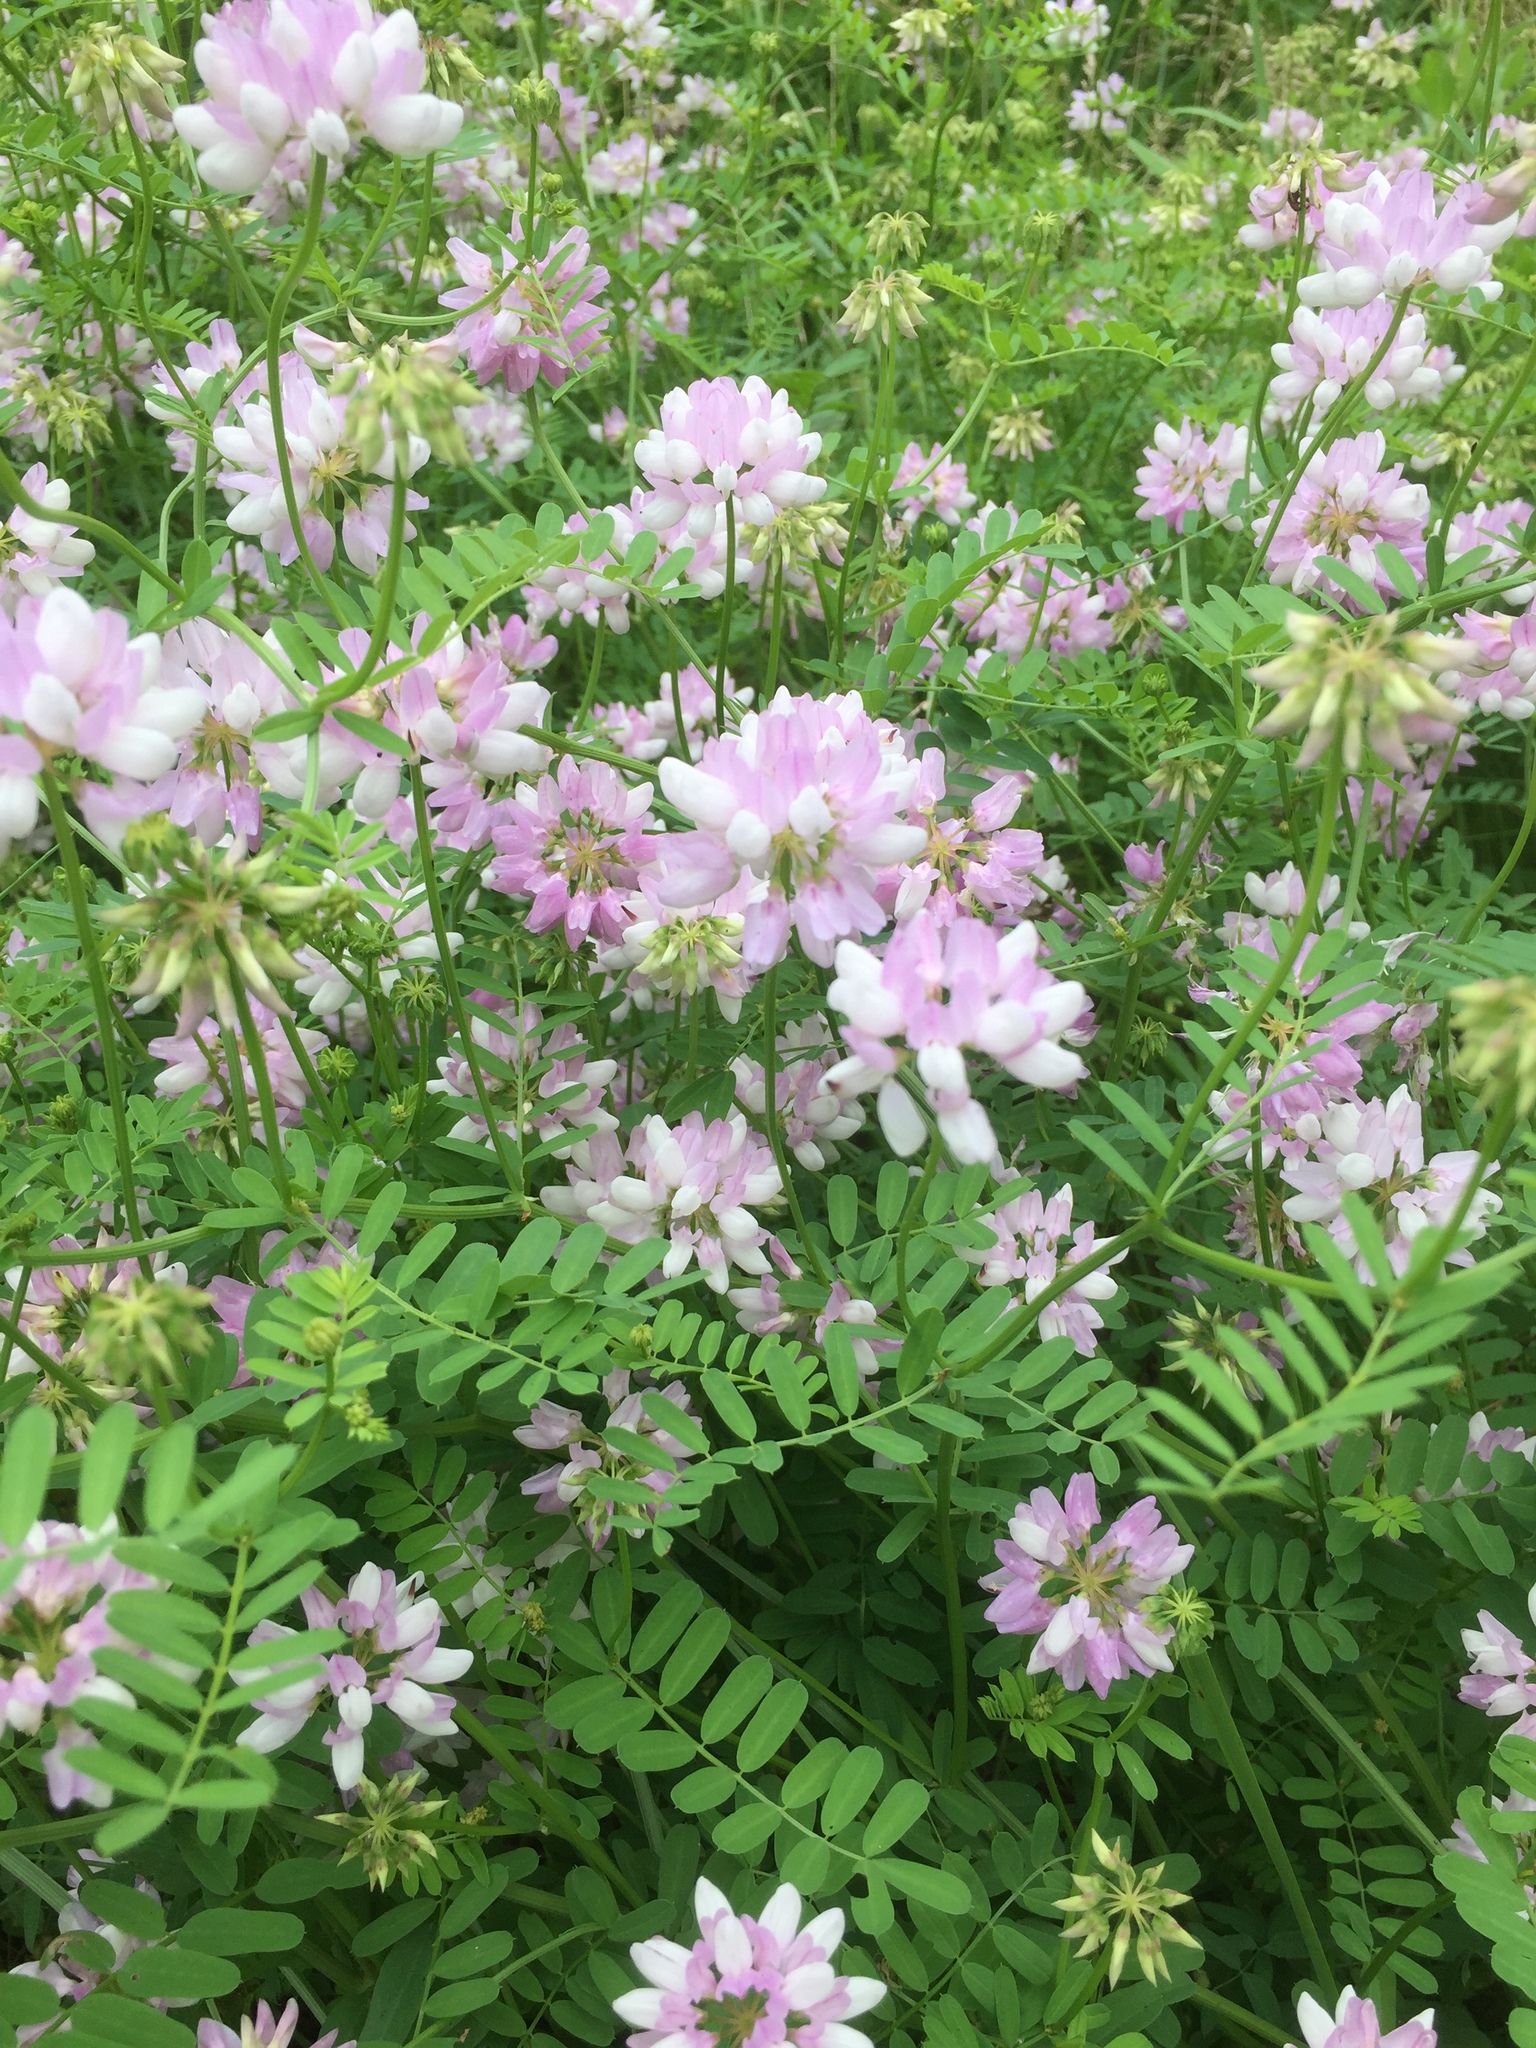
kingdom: Plantae
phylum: Tracheophyta
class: Magnoliopsida
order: Fabales
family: Fabaceae
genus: Coronilla
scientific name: Coronilla varia
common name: Crownvetch
